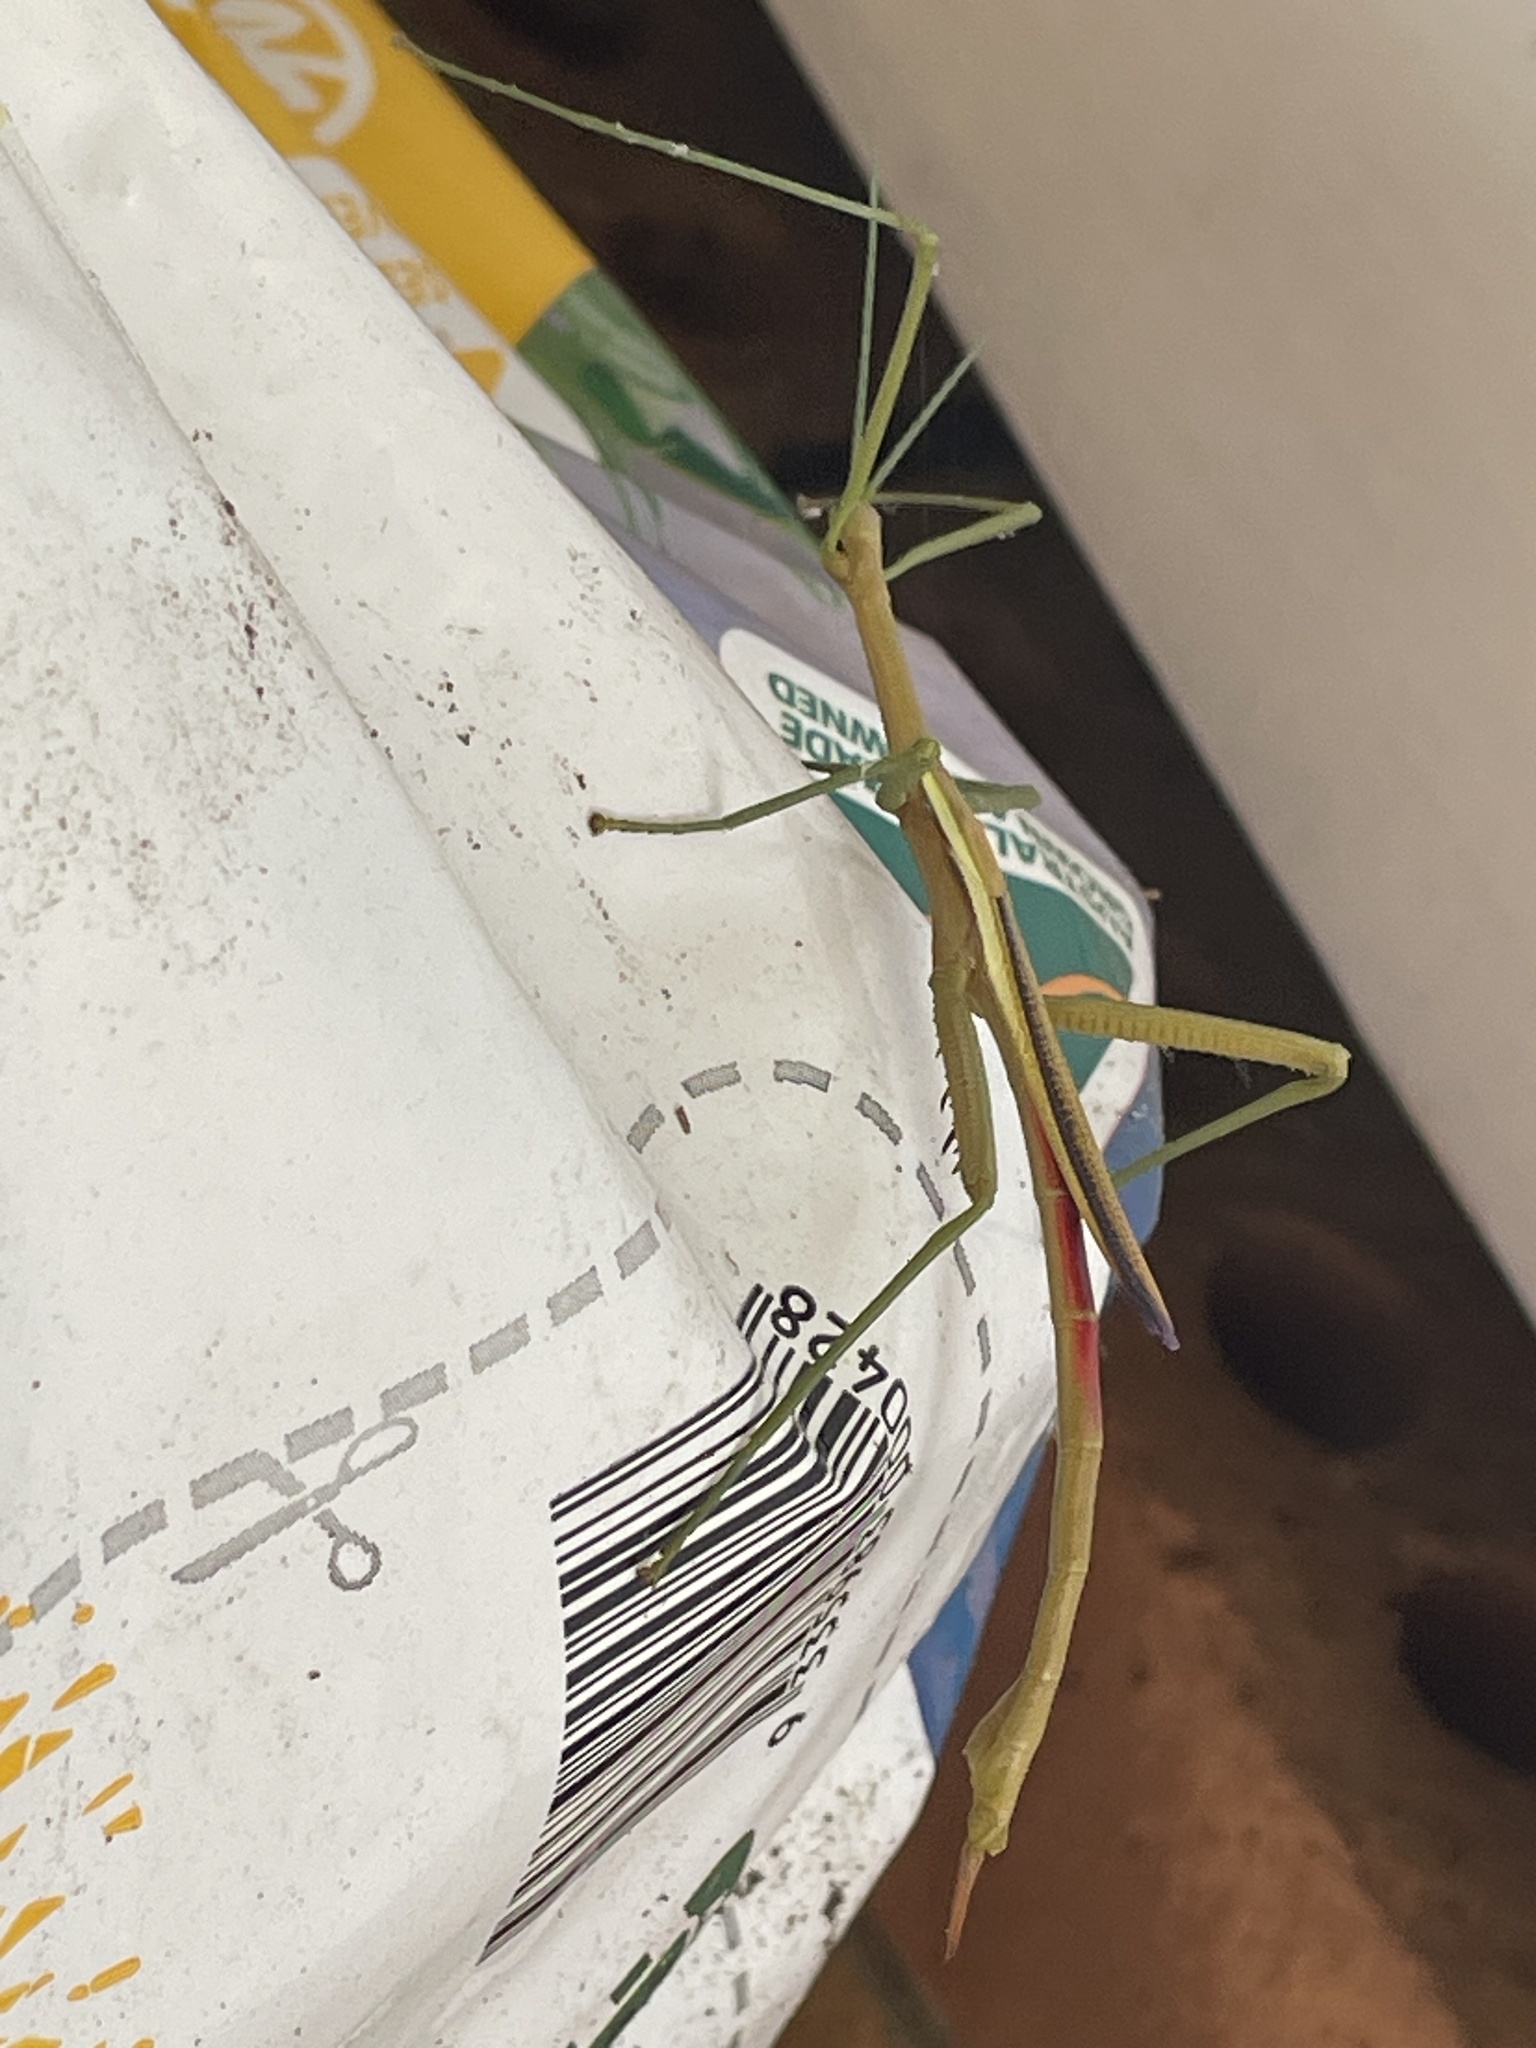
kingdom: Animalia
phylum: Arthropoda
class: Insecta
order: Phasmida
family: Phasmatidae
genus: Didymuria
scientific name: Didymuria violescens
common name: Spur-legged stick-insect
